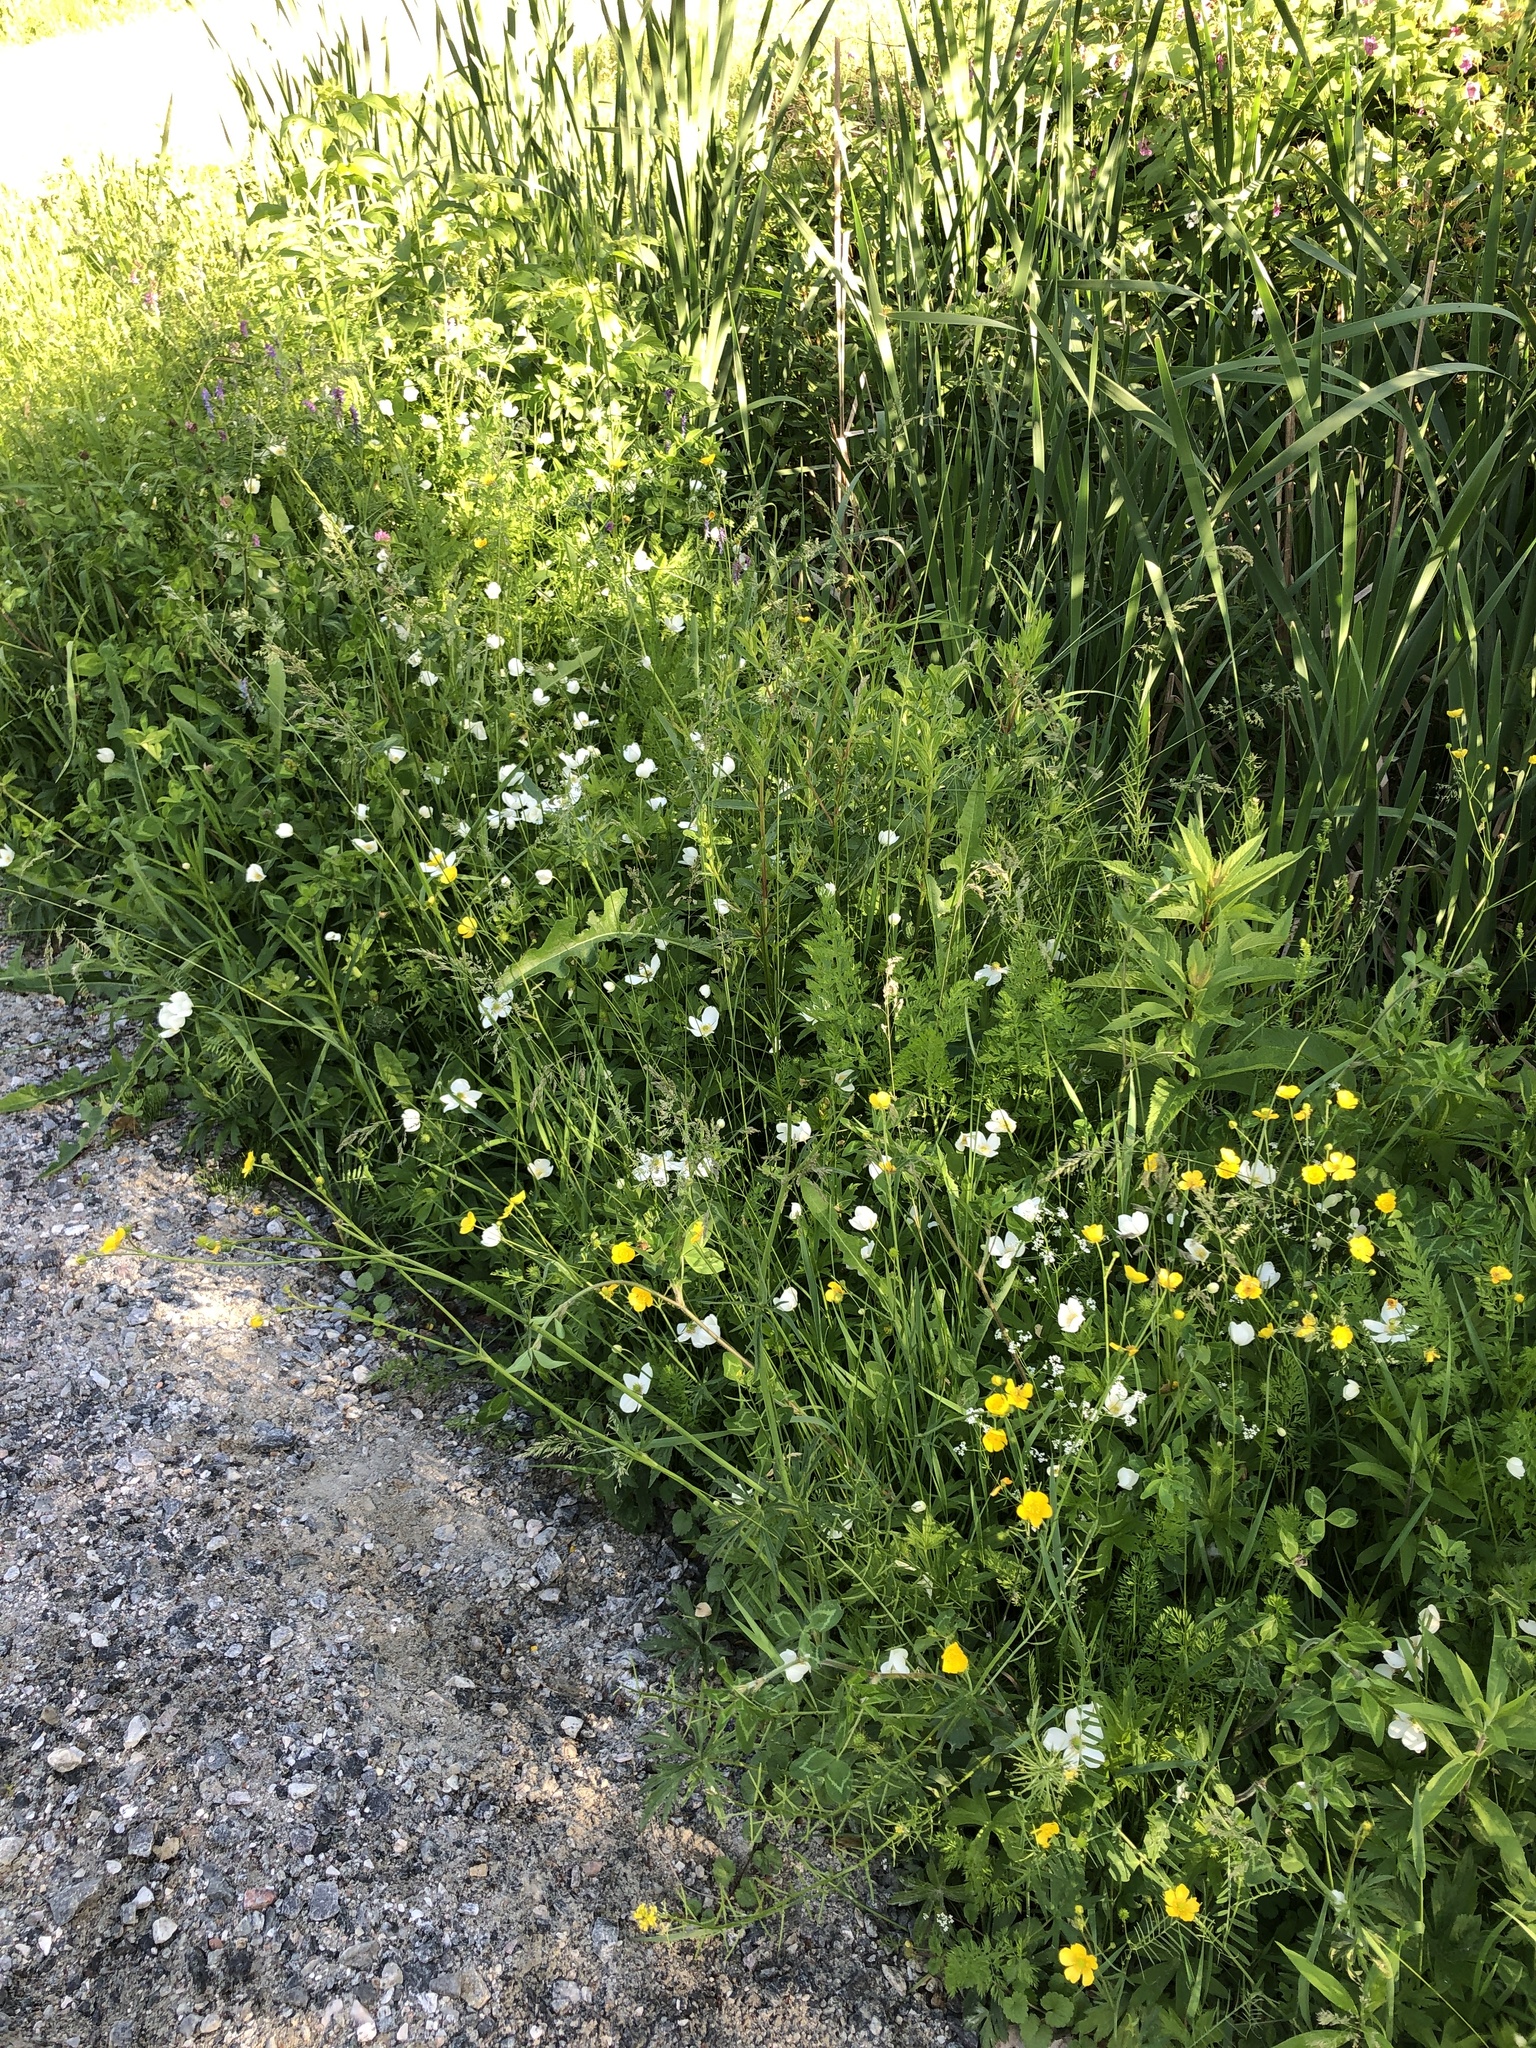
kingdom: Plantae
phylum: Tracheophyta
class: Magnoliopsida
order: Ranunculales
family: Ranunculaceae
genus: Anemonastrum
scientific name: Anemonastrum canadense
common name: Canada anemone
